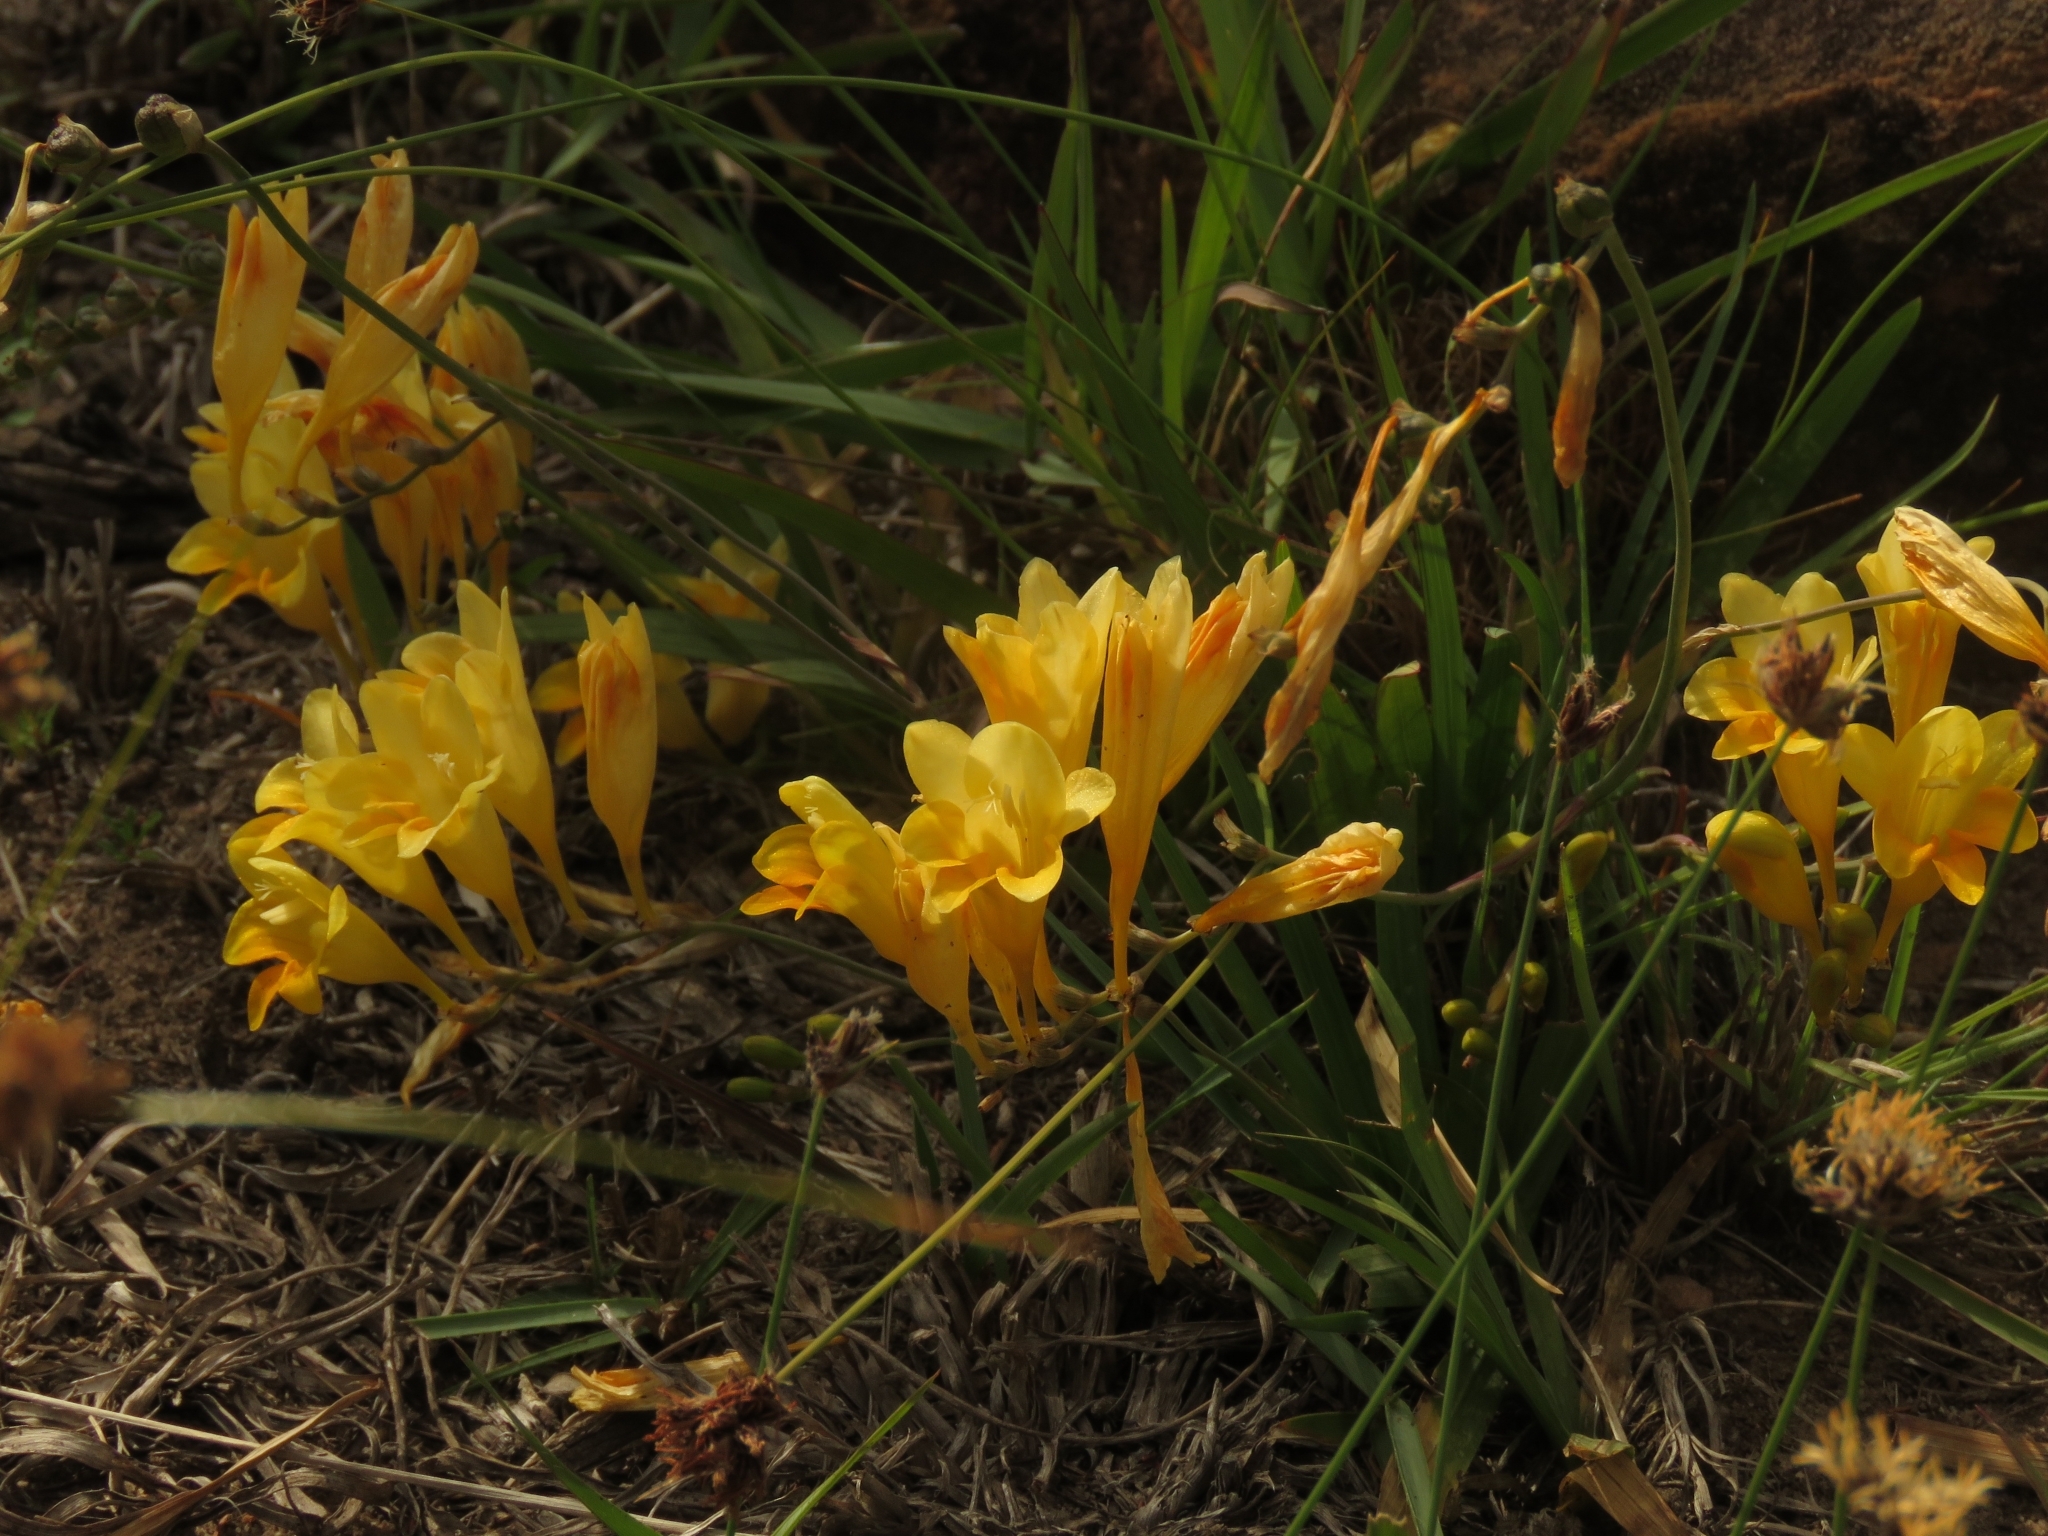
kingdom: Plantae
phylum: Tracheophyta
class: Liliopsida
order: Asparagales
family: Iridaceae
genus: Freesia
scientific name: Freesia corymbosa
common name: Common freesia
